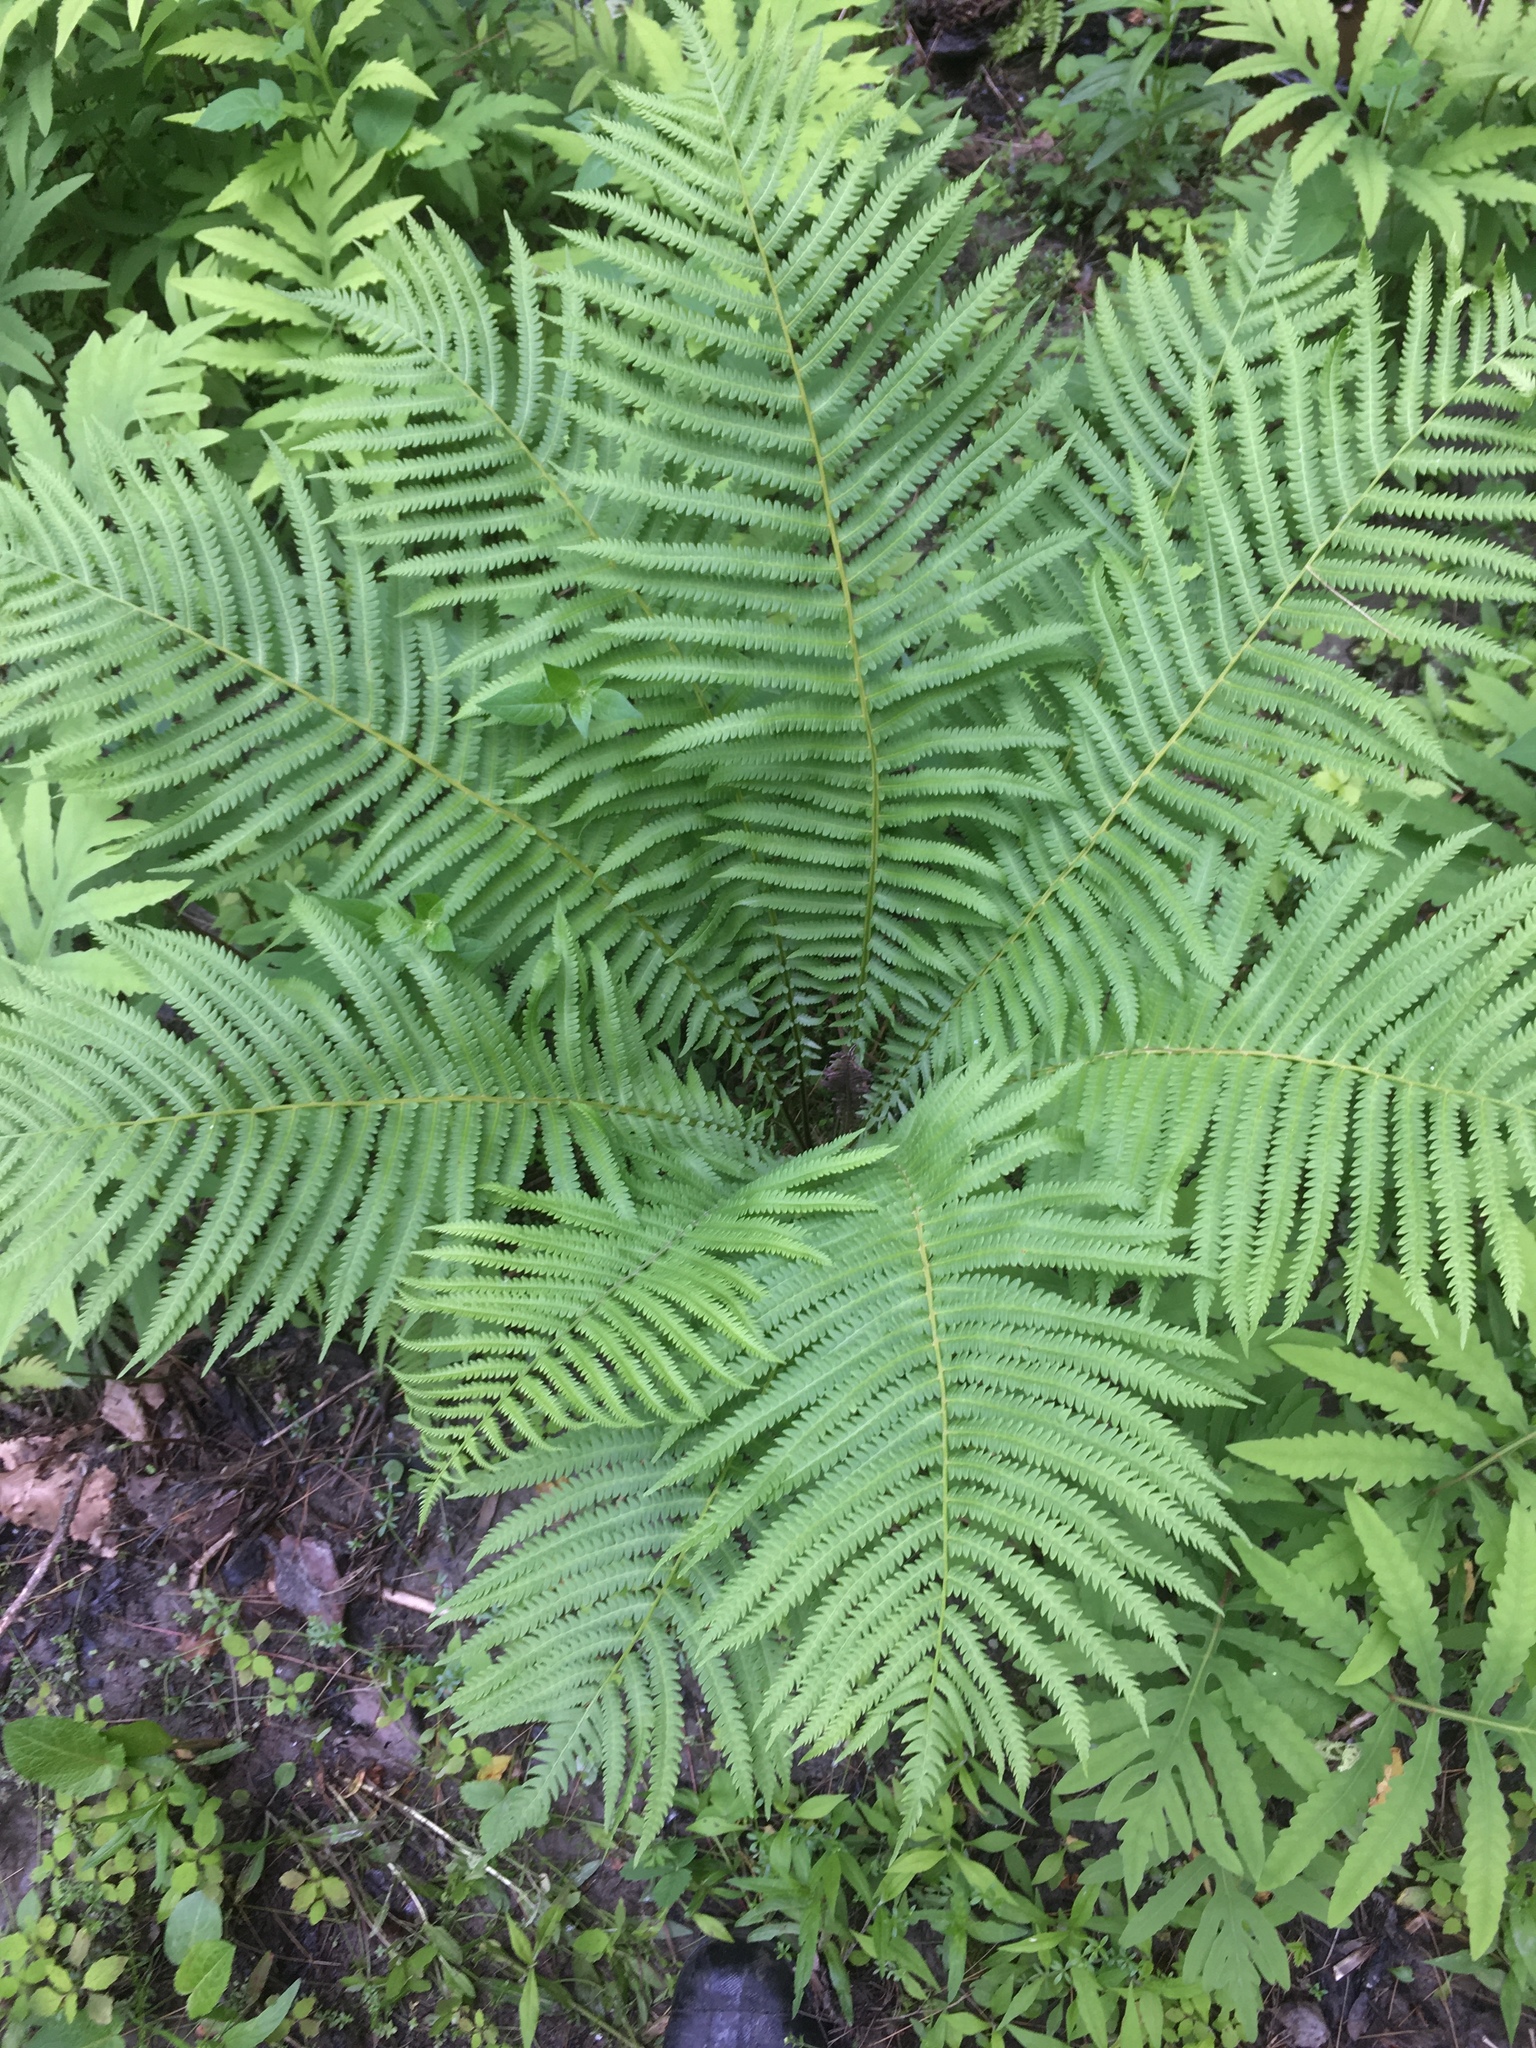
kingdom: Plantae
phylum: Tracheophyta
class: Polypodiopsida
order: Polypodiales
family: Onocleaceae
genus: Matteuccia
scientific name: Matteuccia struthiopteris
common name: Ostrich fern
